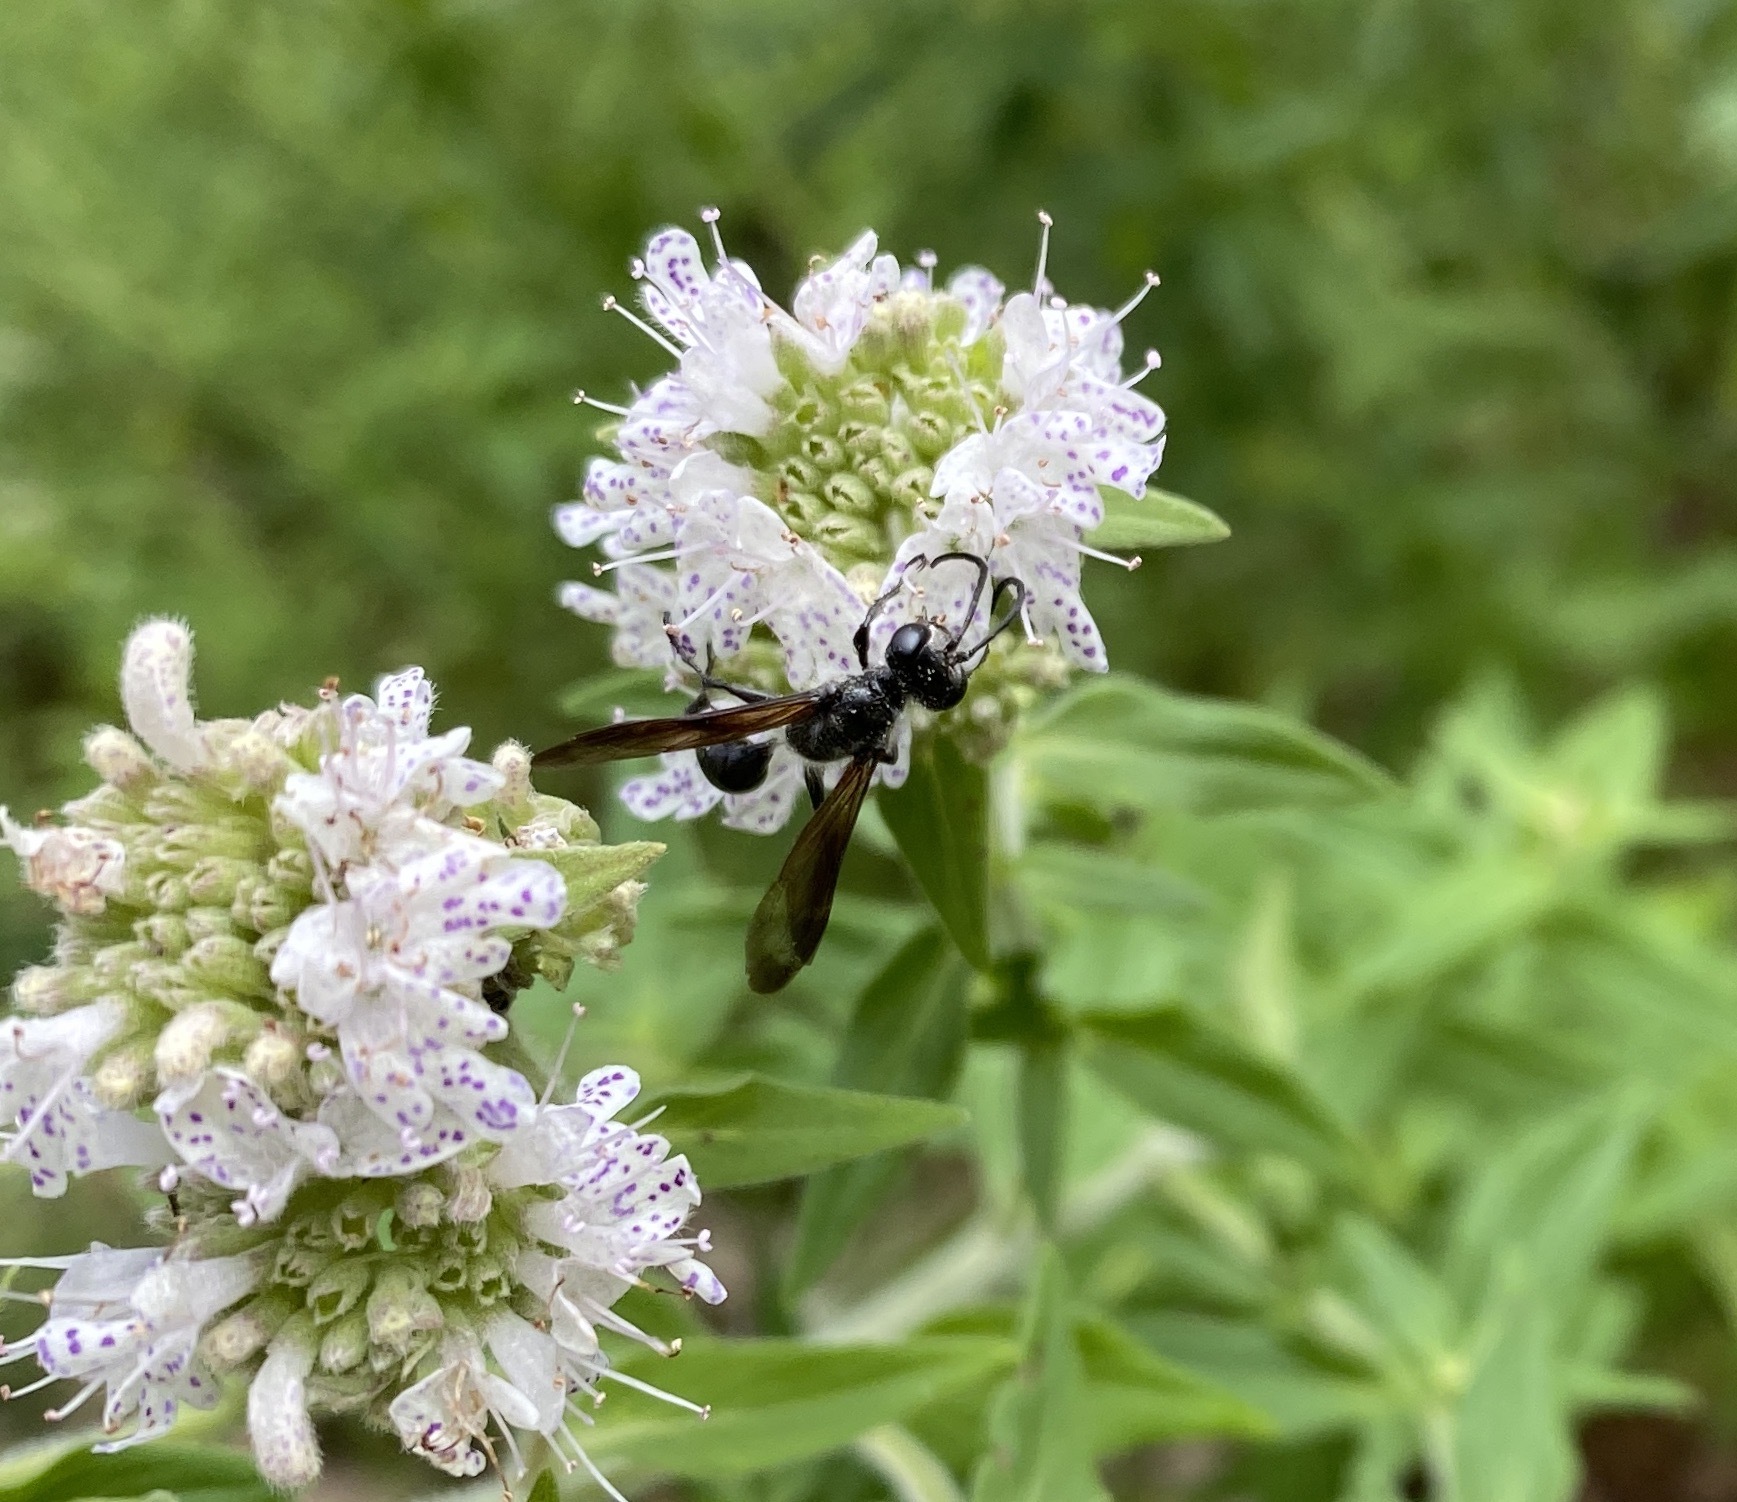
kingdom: Animalia
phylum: Arthropoda
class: Insecta
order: Hymenoptera
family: Sphecidae
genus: Isodontia
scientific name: Isodontia mexicana
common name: Mud dauber
